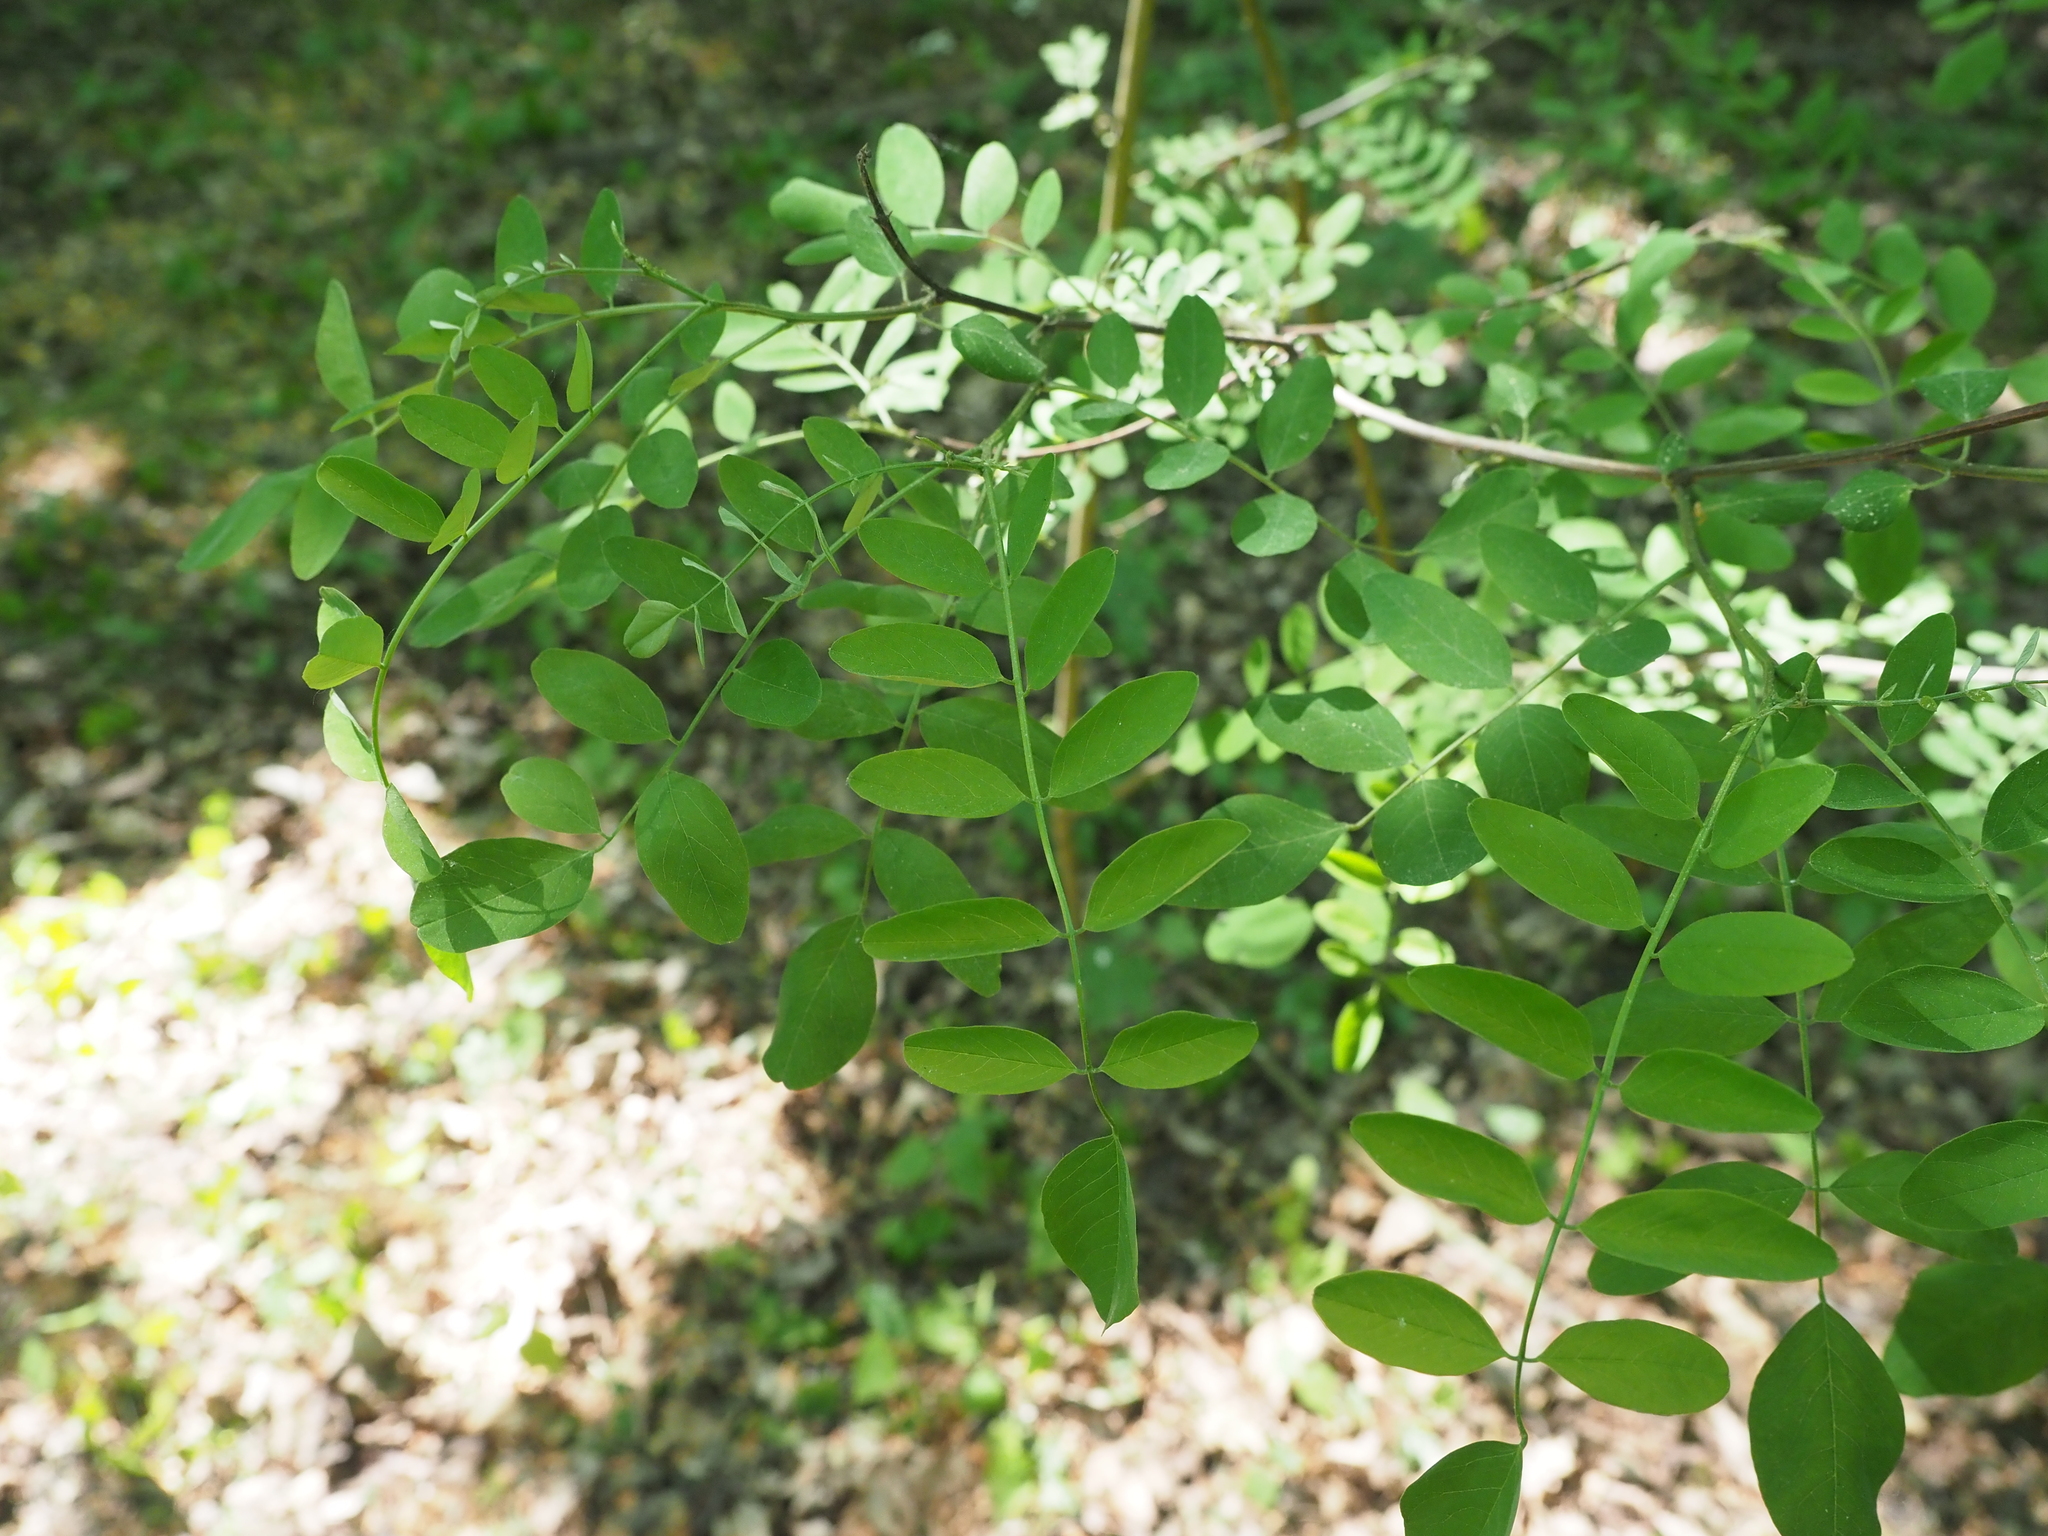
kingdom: Plantae
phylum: Tracheophyta
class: Magnoliopsida
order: Fabales
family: Fabaceae
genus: Robinia
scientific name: Robinia pseudoacacia
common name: Black locust
